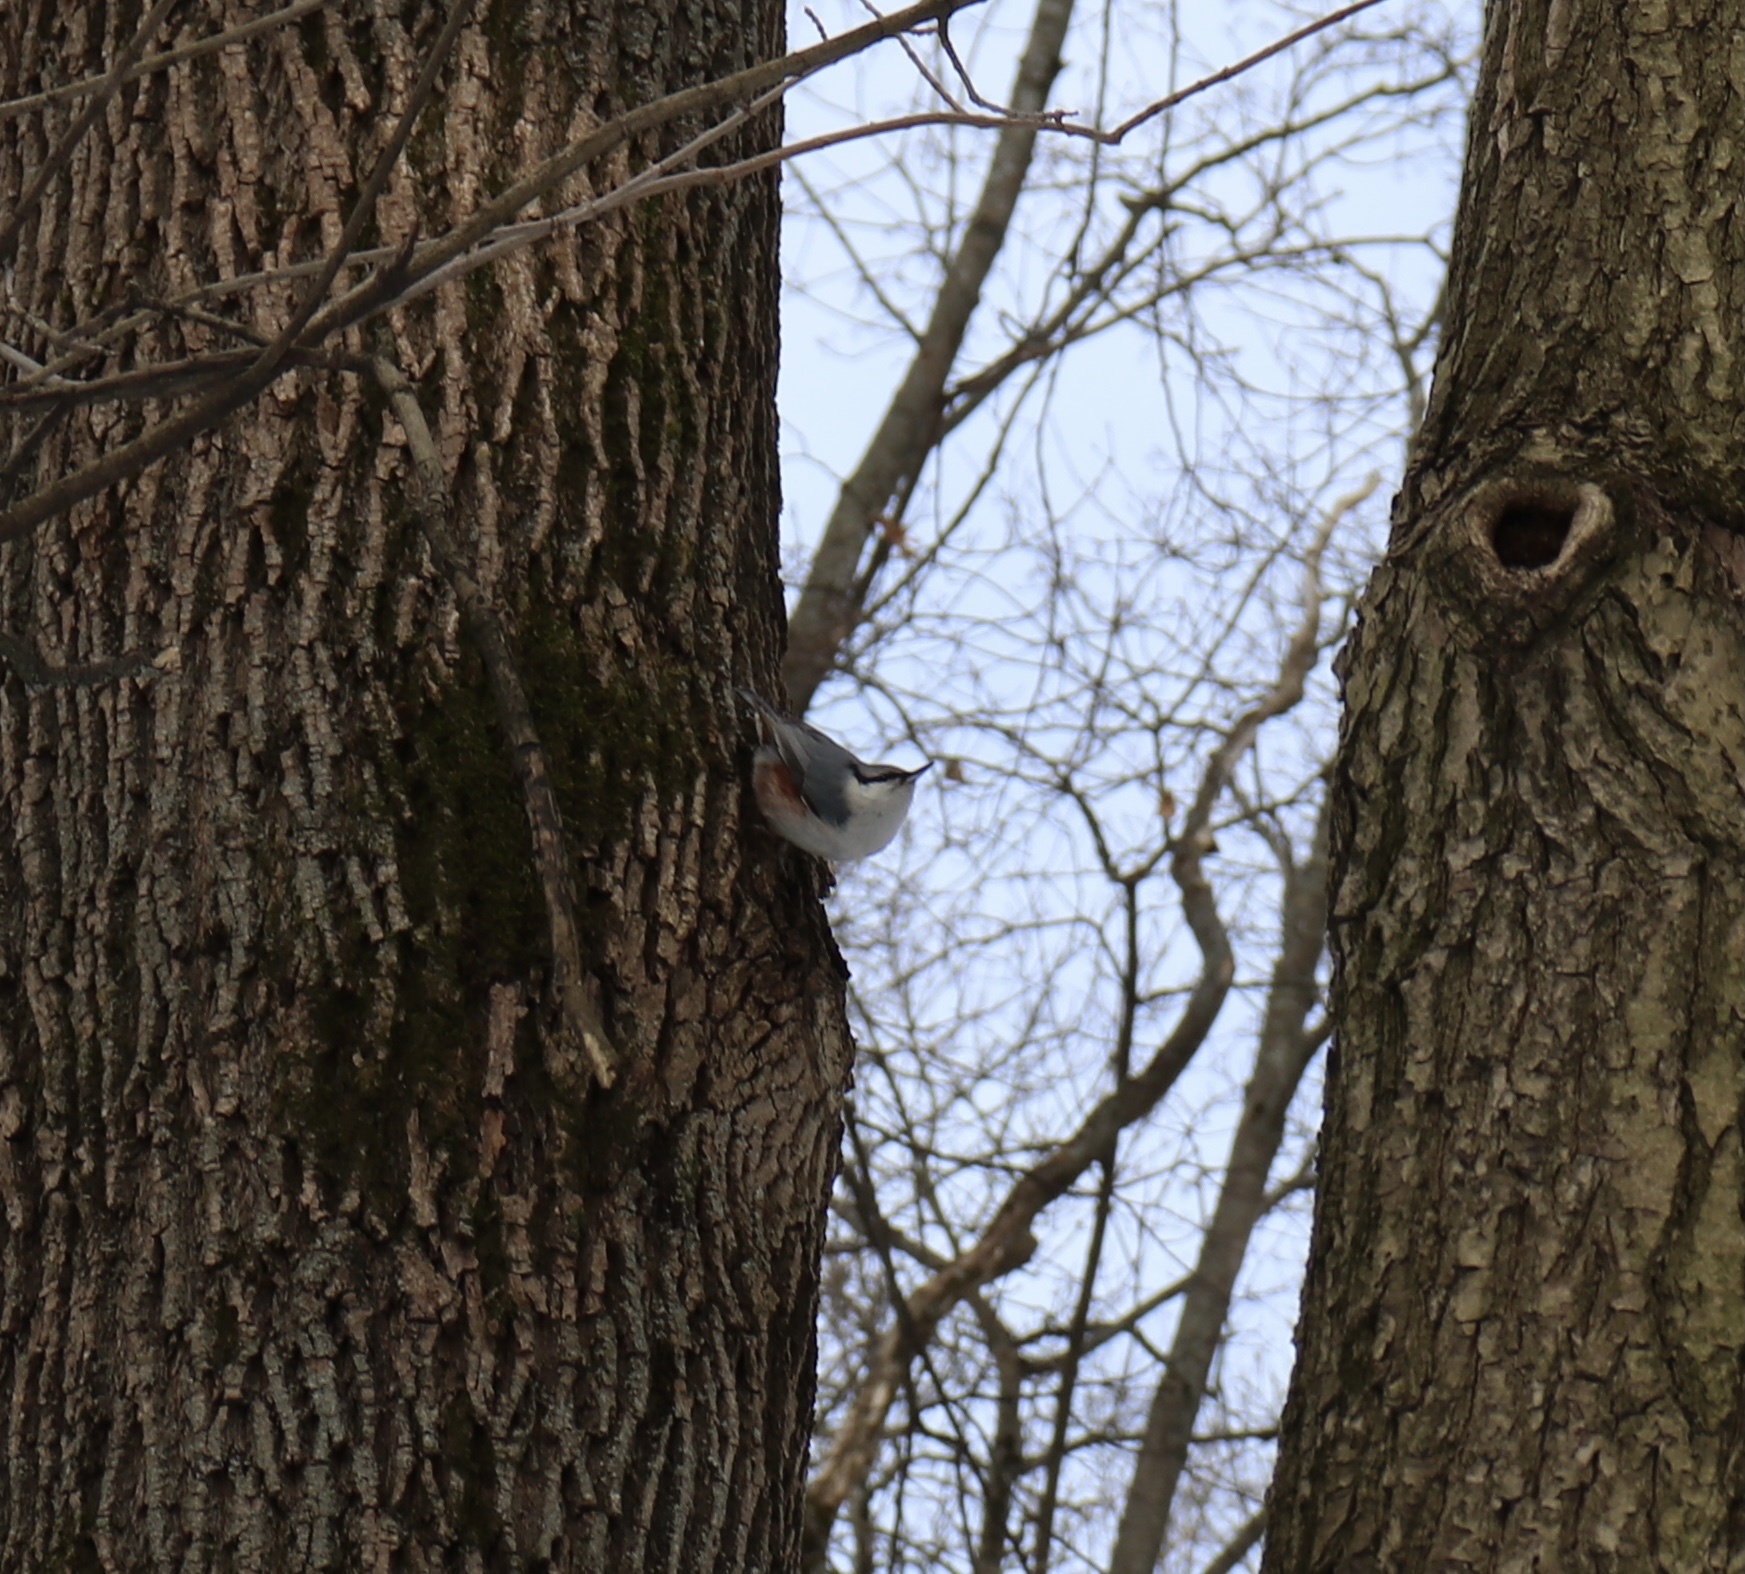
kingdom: Animalia
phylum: Chordata
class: Aves
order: Passeriformes
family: Sittidae
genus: Sitta
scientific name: Sitta europaea
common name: Eurasian nuthatch
